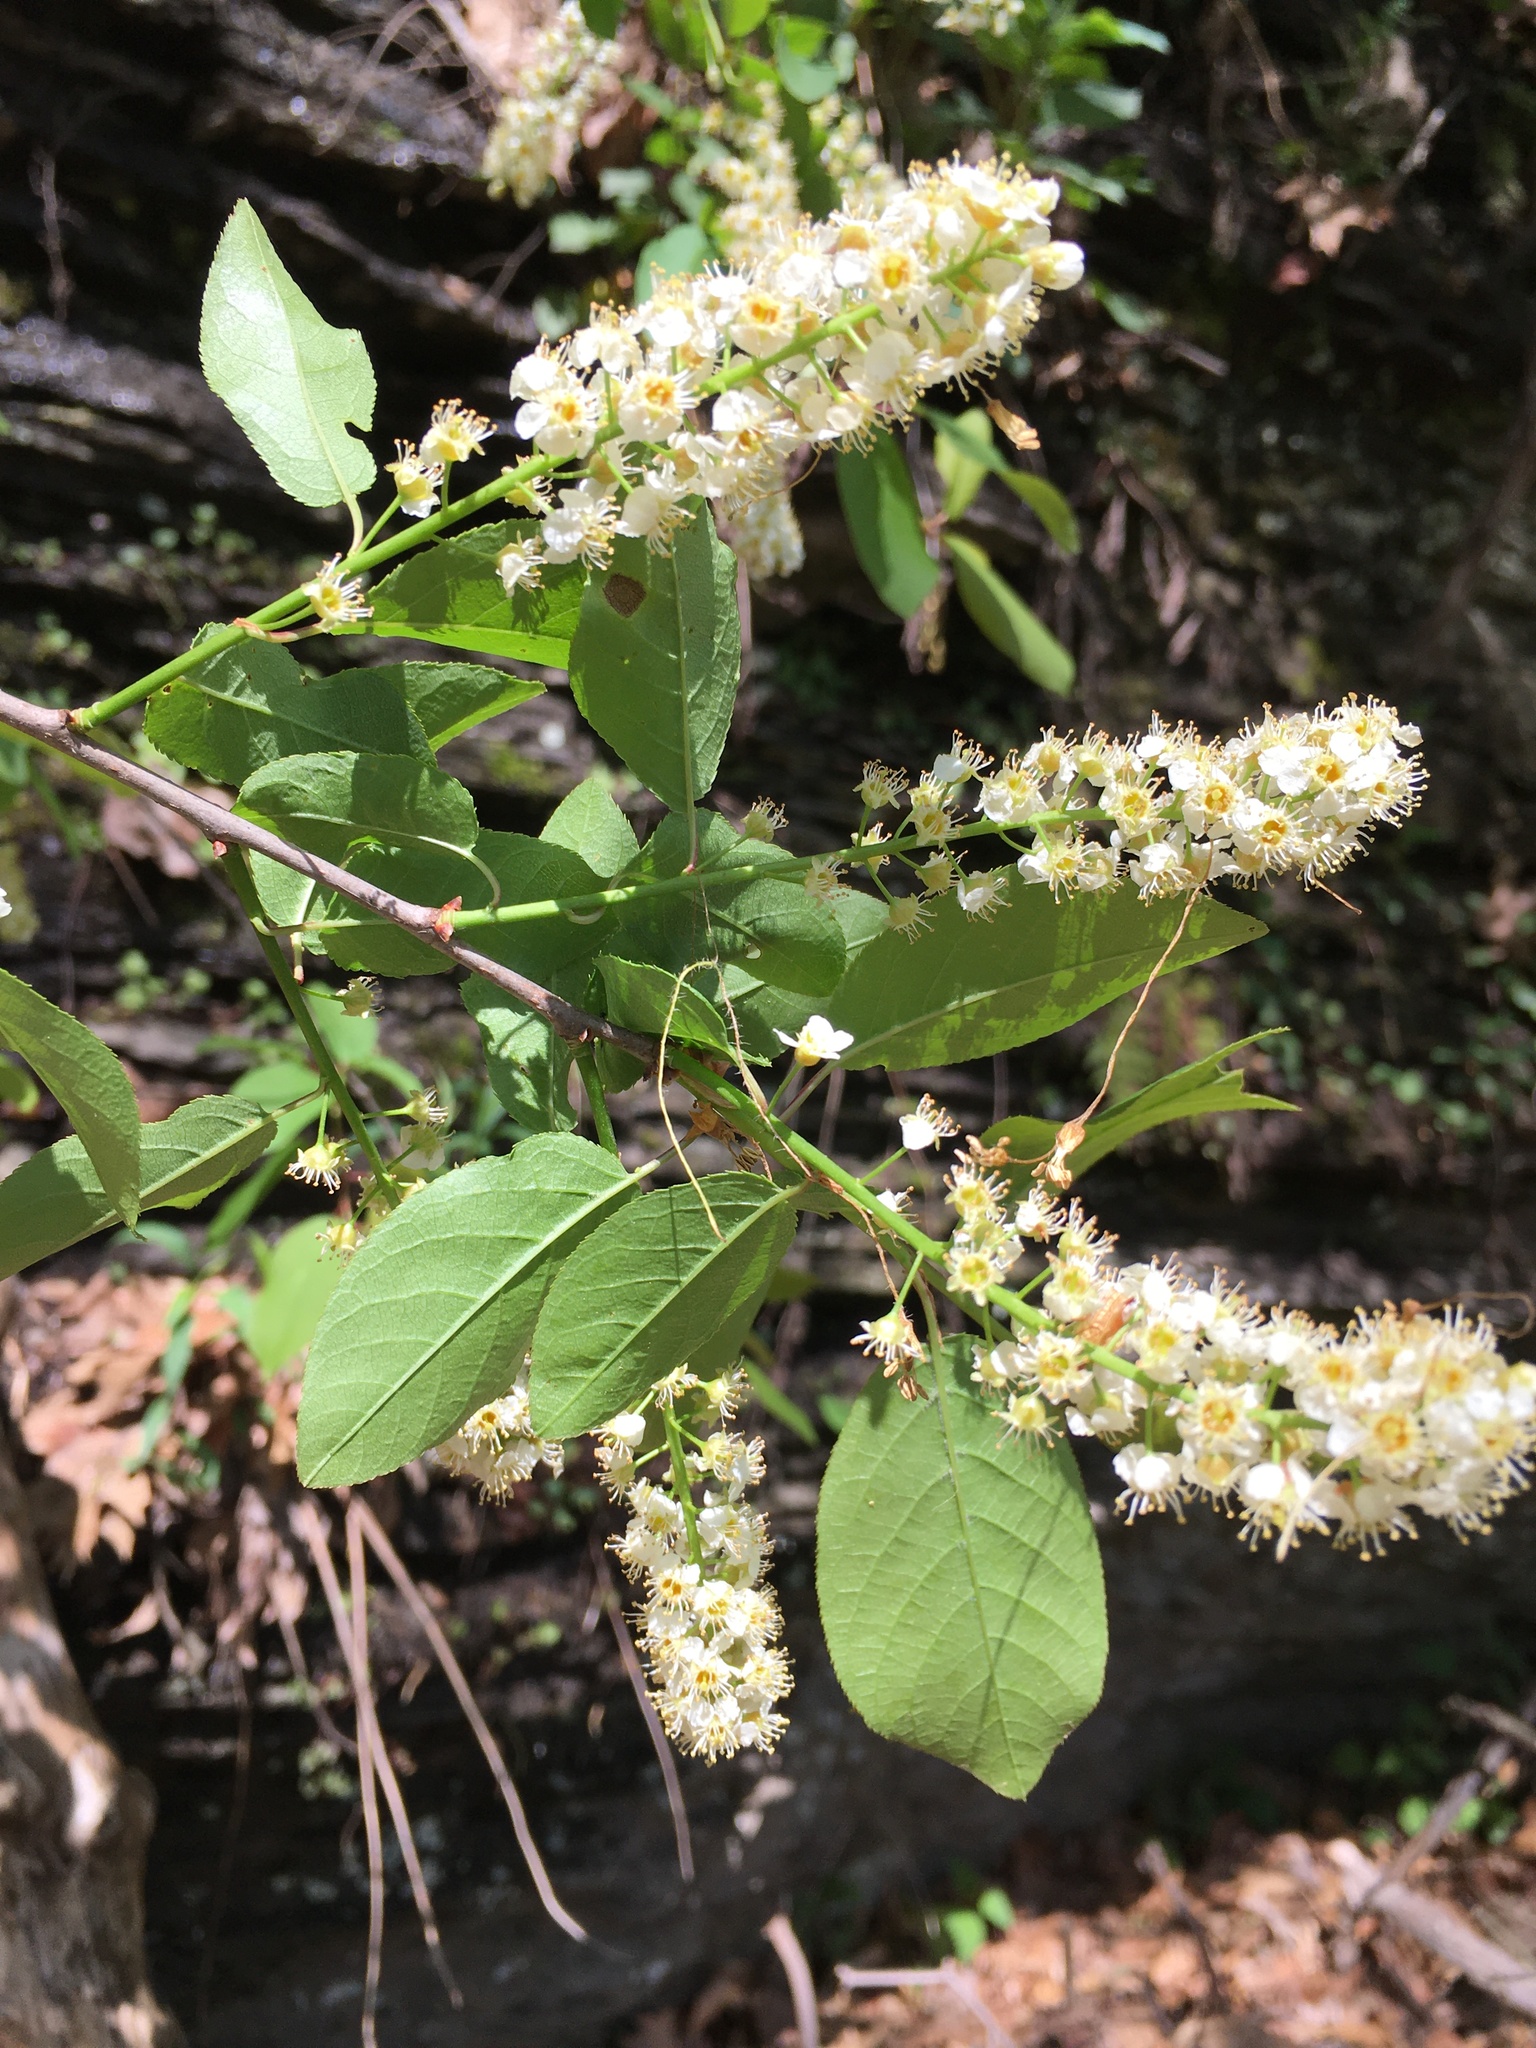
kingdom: Plantae
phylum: Tracheophyta
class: Magnoliopsida
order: Rosales
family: Rosaceae
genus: Prunus
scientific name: Prunus virginiana
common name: Chokecherry
